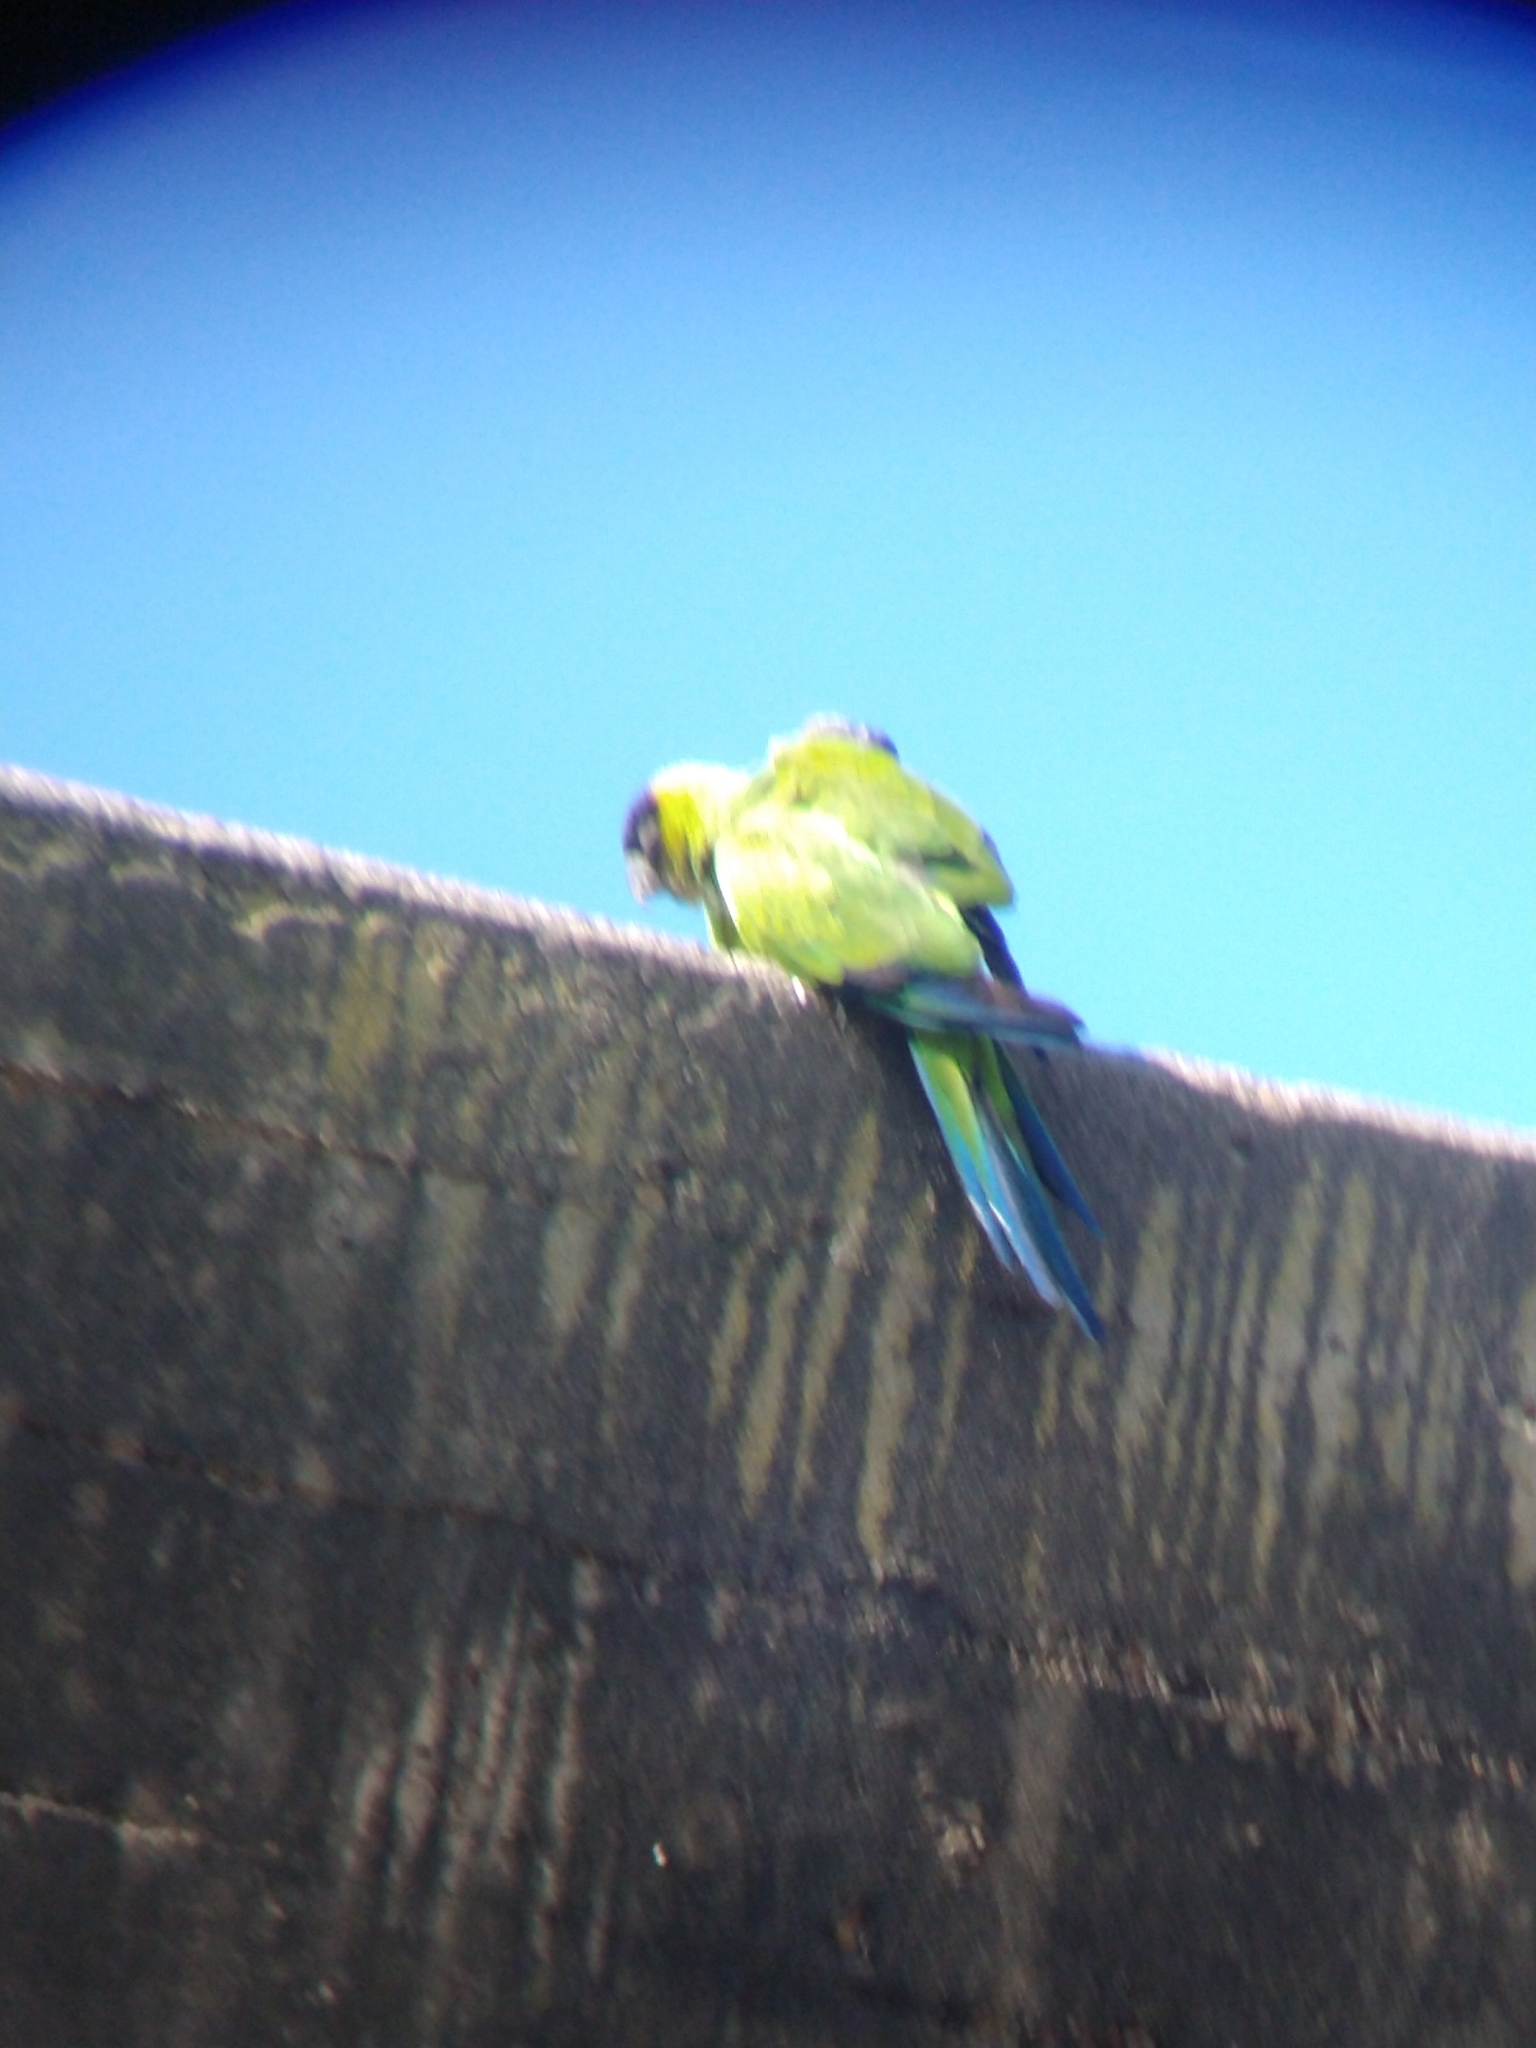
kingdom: Animalia
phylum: Chordata
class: Aves
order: Psittaciformes
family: Psittacidae
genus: Nandayus
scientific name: Nandayus nenday
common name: Nanday parakeet
